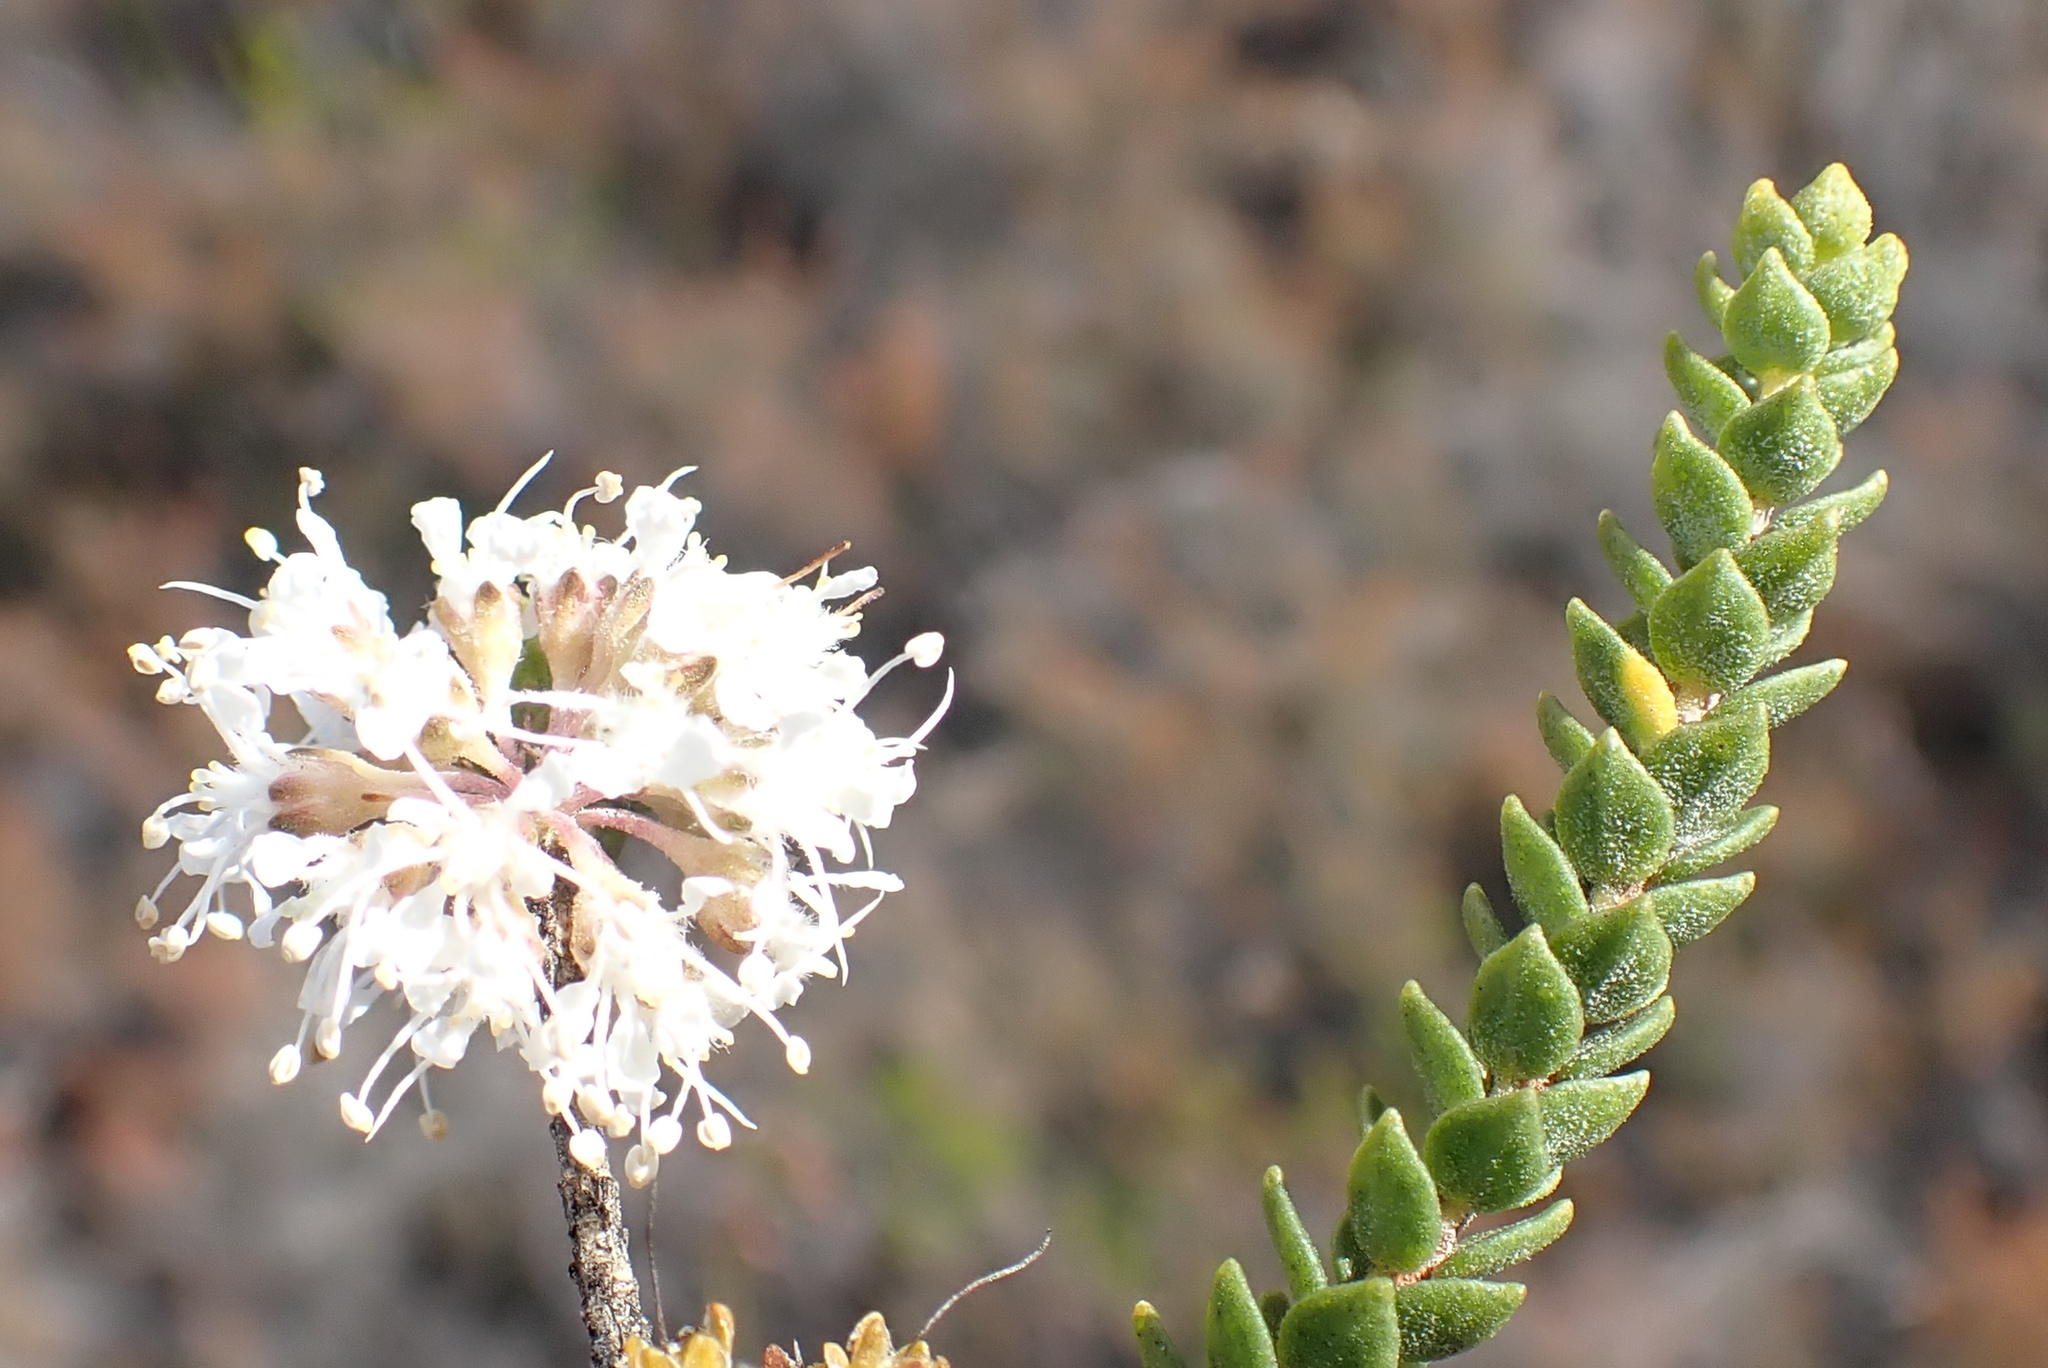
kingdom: Plantae
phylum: Tracheophyta
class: Magnoliopsida
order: Sapindales
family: Rutaceae
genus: Agathosma
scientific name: Agathosma roodebergensis
